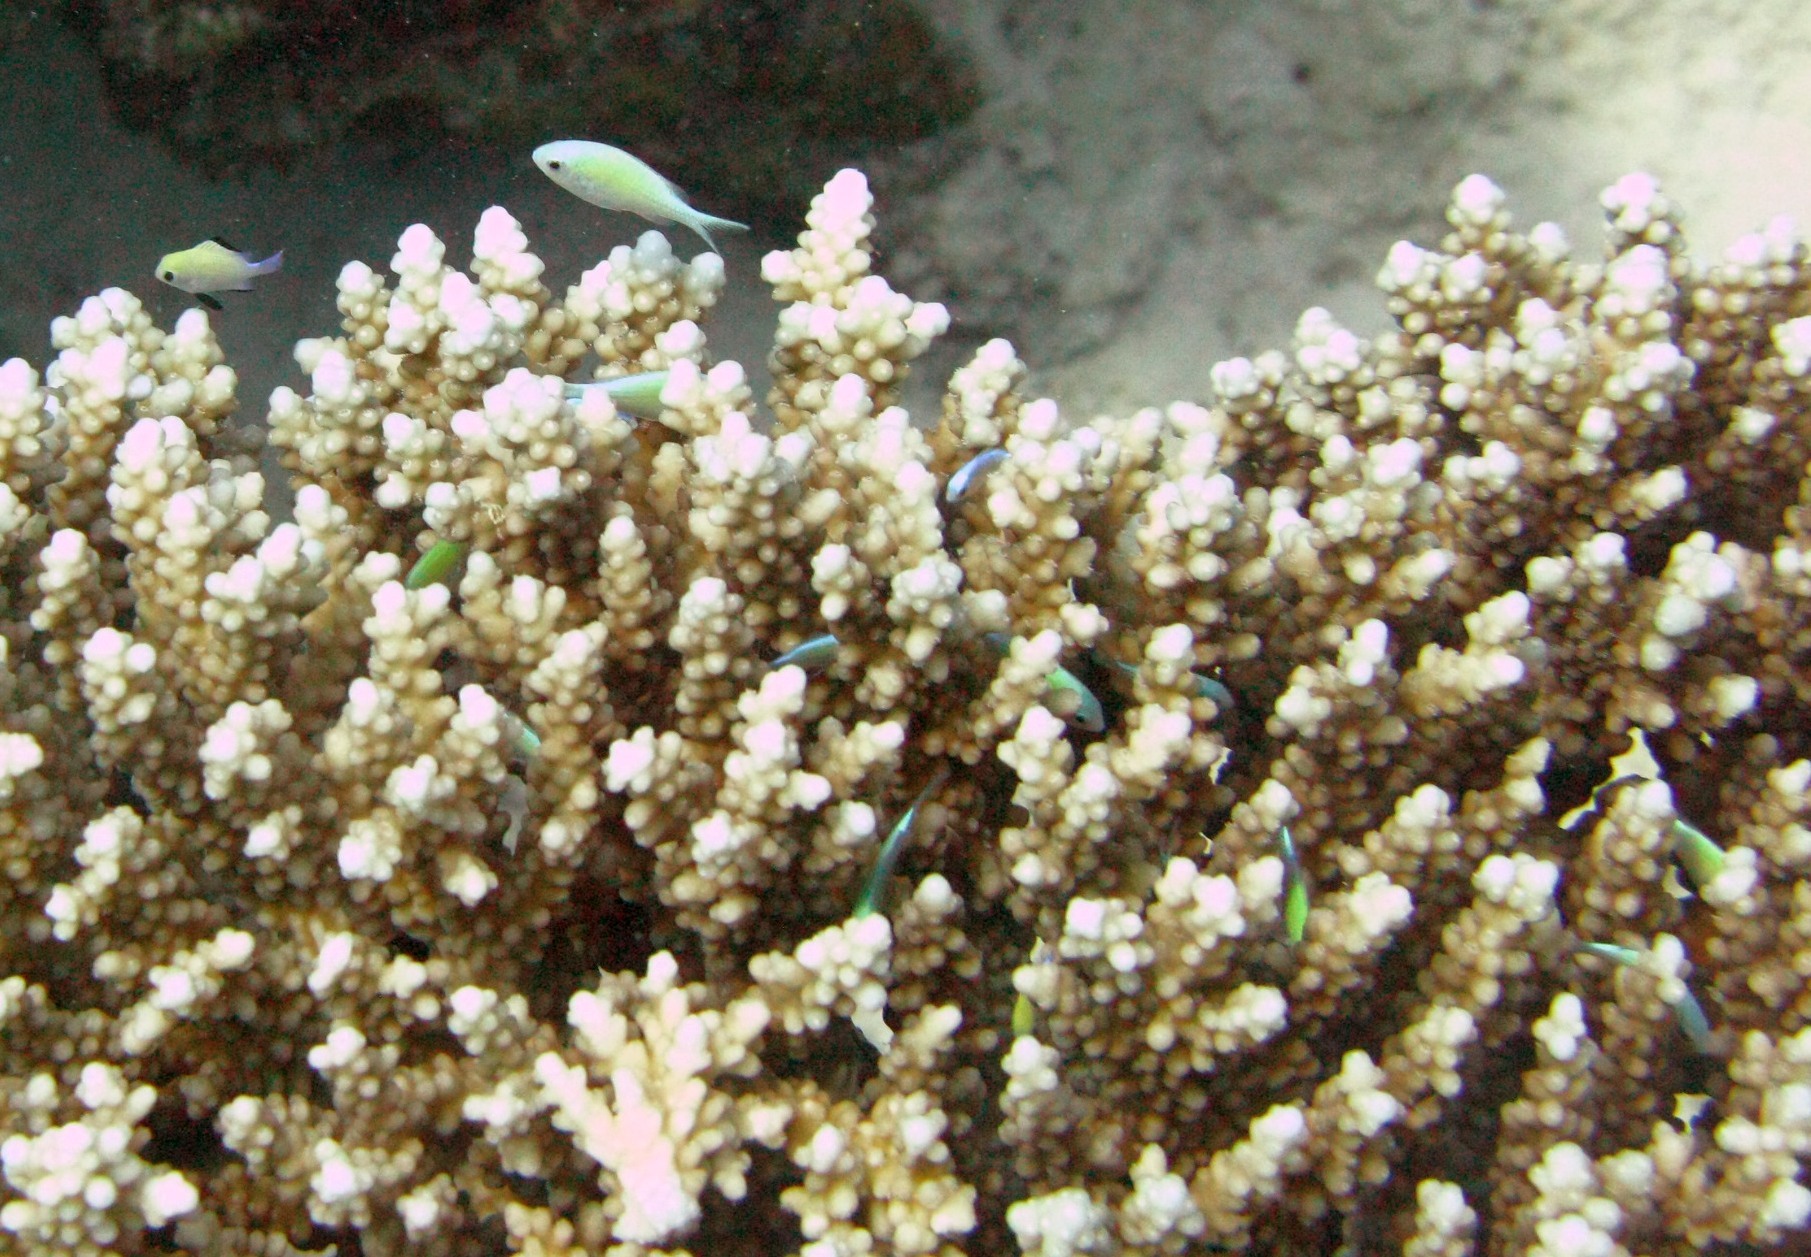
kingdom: Animalia
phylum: Chordata
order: Perciformes
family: Pomacentridae
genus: Chromis
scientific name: Chromis viridis
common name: Blue-green chromis
